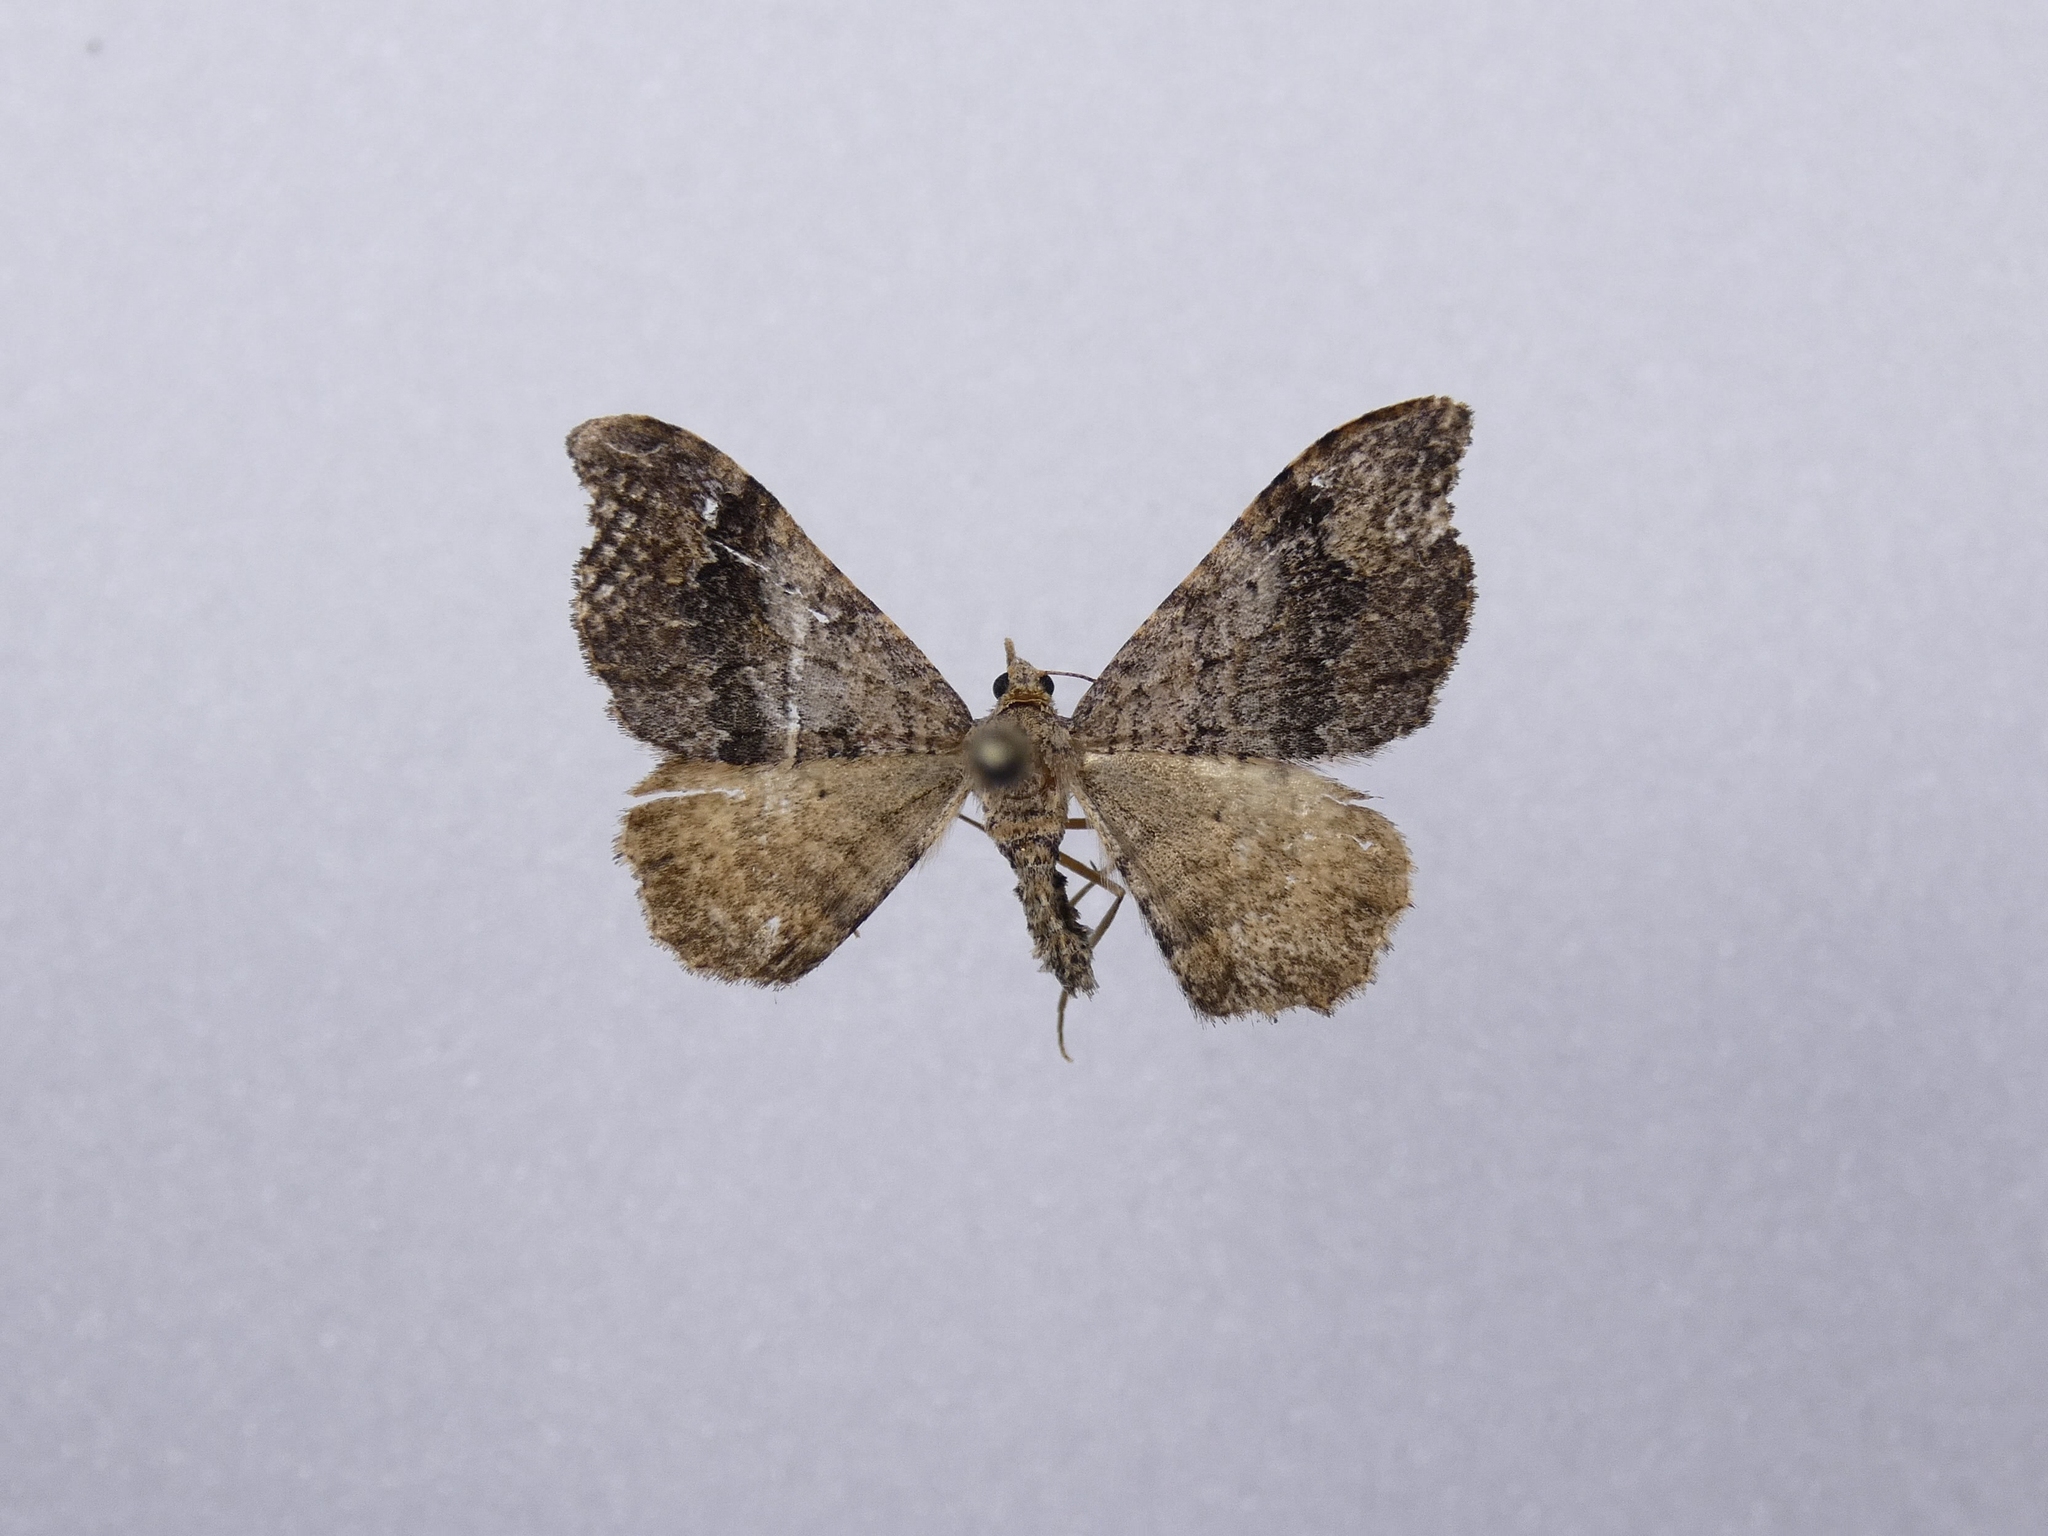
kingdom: Animalia
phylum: Arthropoda
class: Insecta
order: Lepidoptera
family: Geometridae
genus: Homodotis
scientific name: Homodotis megaspilata
